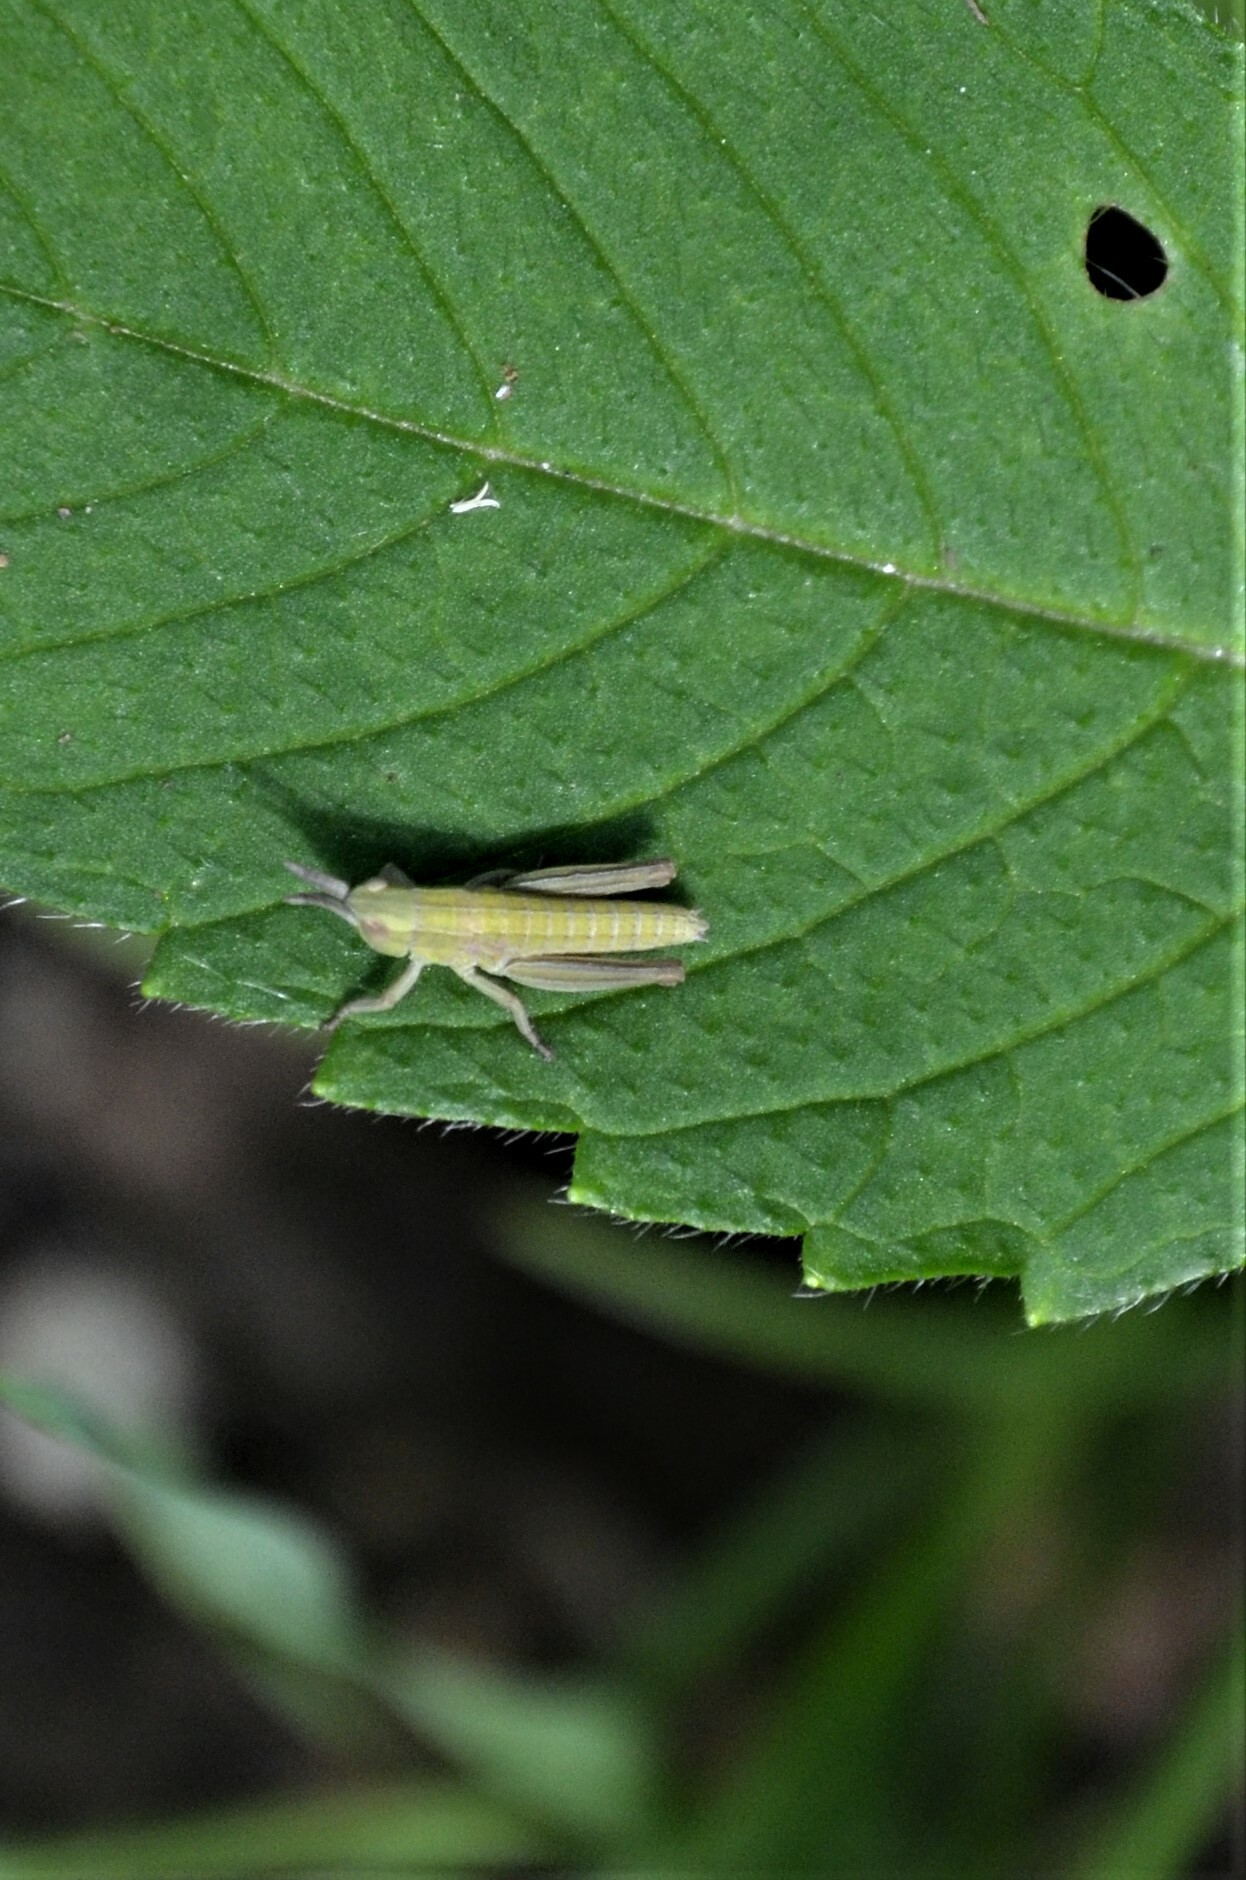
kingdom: Animalia
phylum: Arthropoda
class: Insecta
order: Orthoptera
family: Acrididae
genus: Euthystira
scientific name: Euthystira brachyptera
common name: Small gold grasshopper
